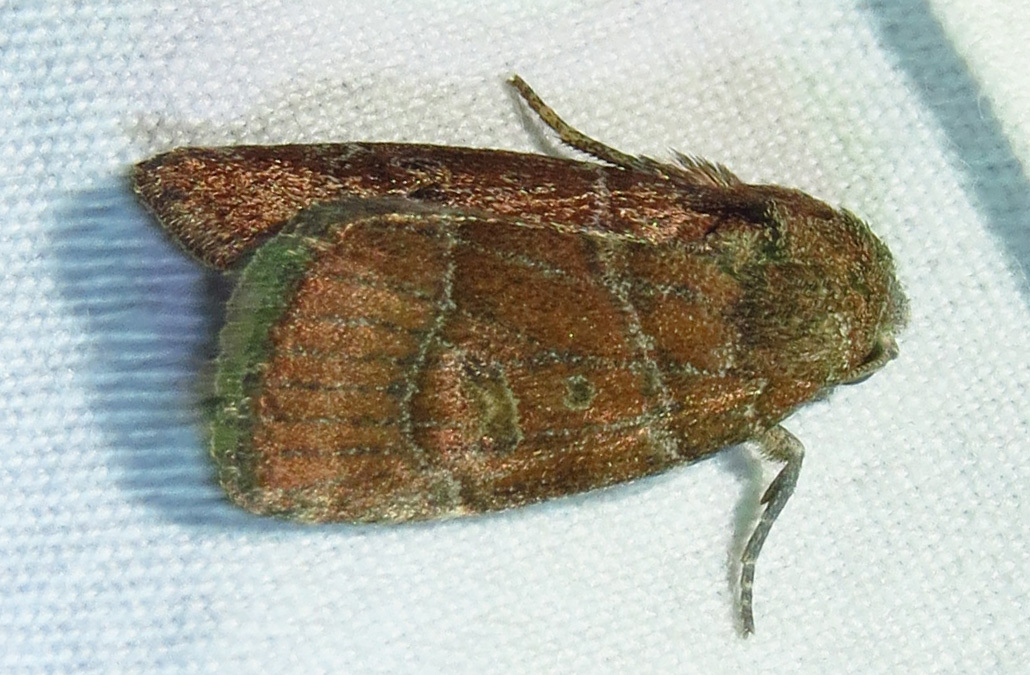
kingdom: Animalia
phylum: Arthropoda
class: Insecta
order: Lepidoptera
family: Noctuidae
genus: Elaphria
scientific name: Elaphria grata
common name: Grateful midget moth
